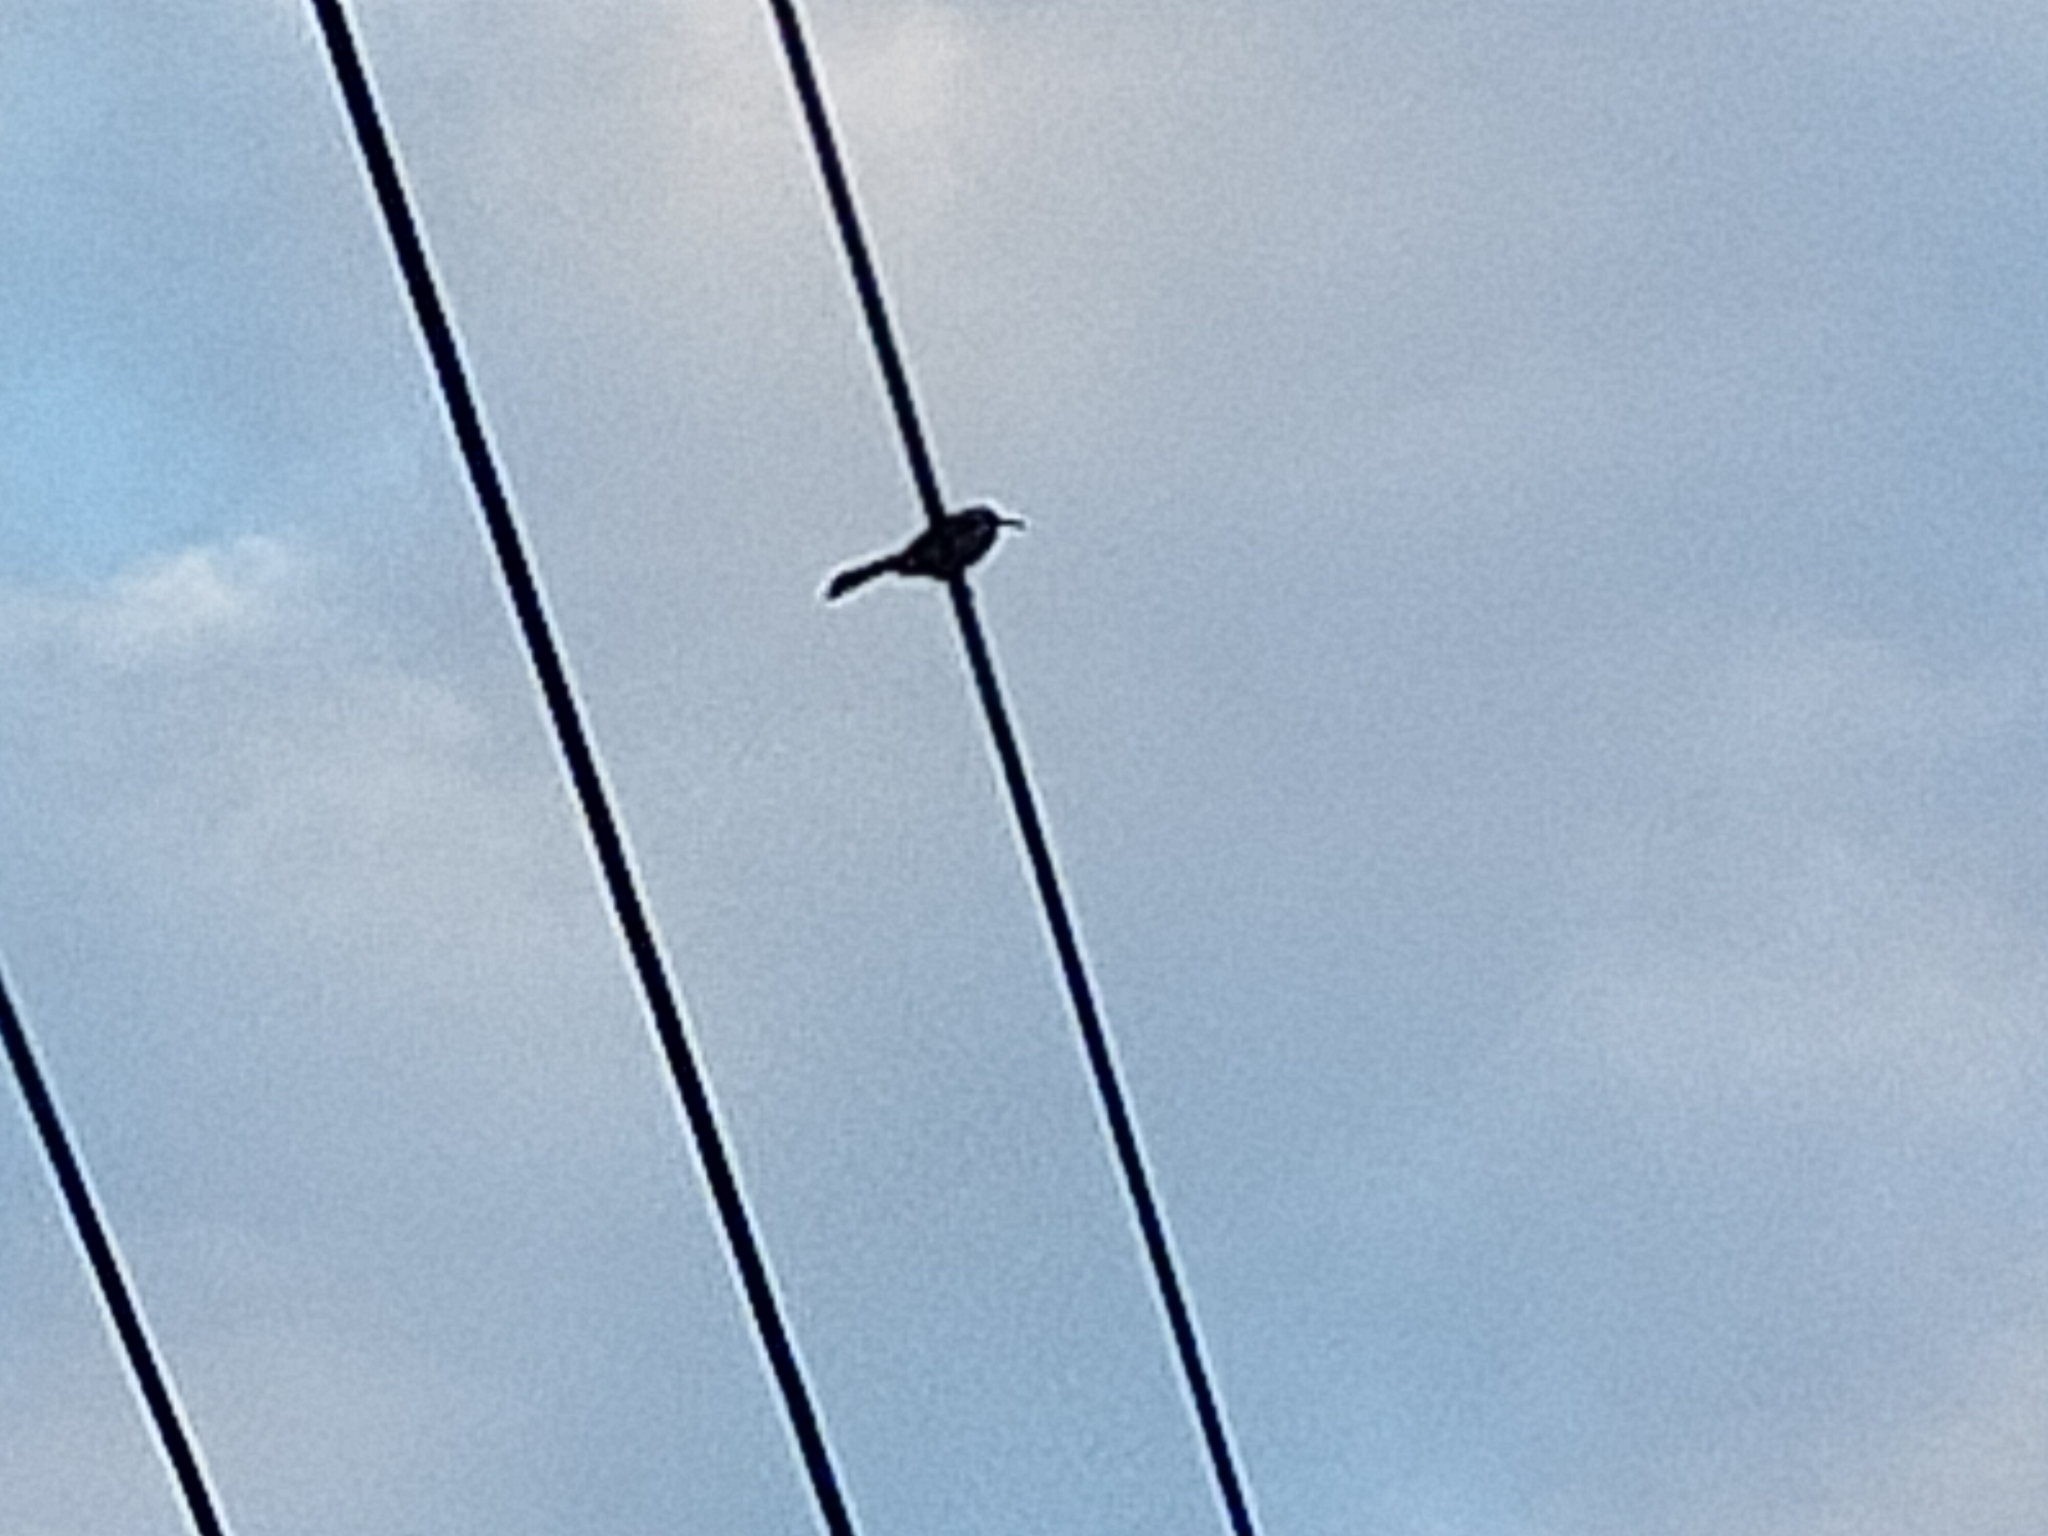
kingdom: Animalia
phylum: Chordata
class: Aves
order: Passeriformes
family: Meliphagidae
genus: Phylidonyris
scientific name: Phylidonyris novaehollandiae
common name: New holland honeyeater
